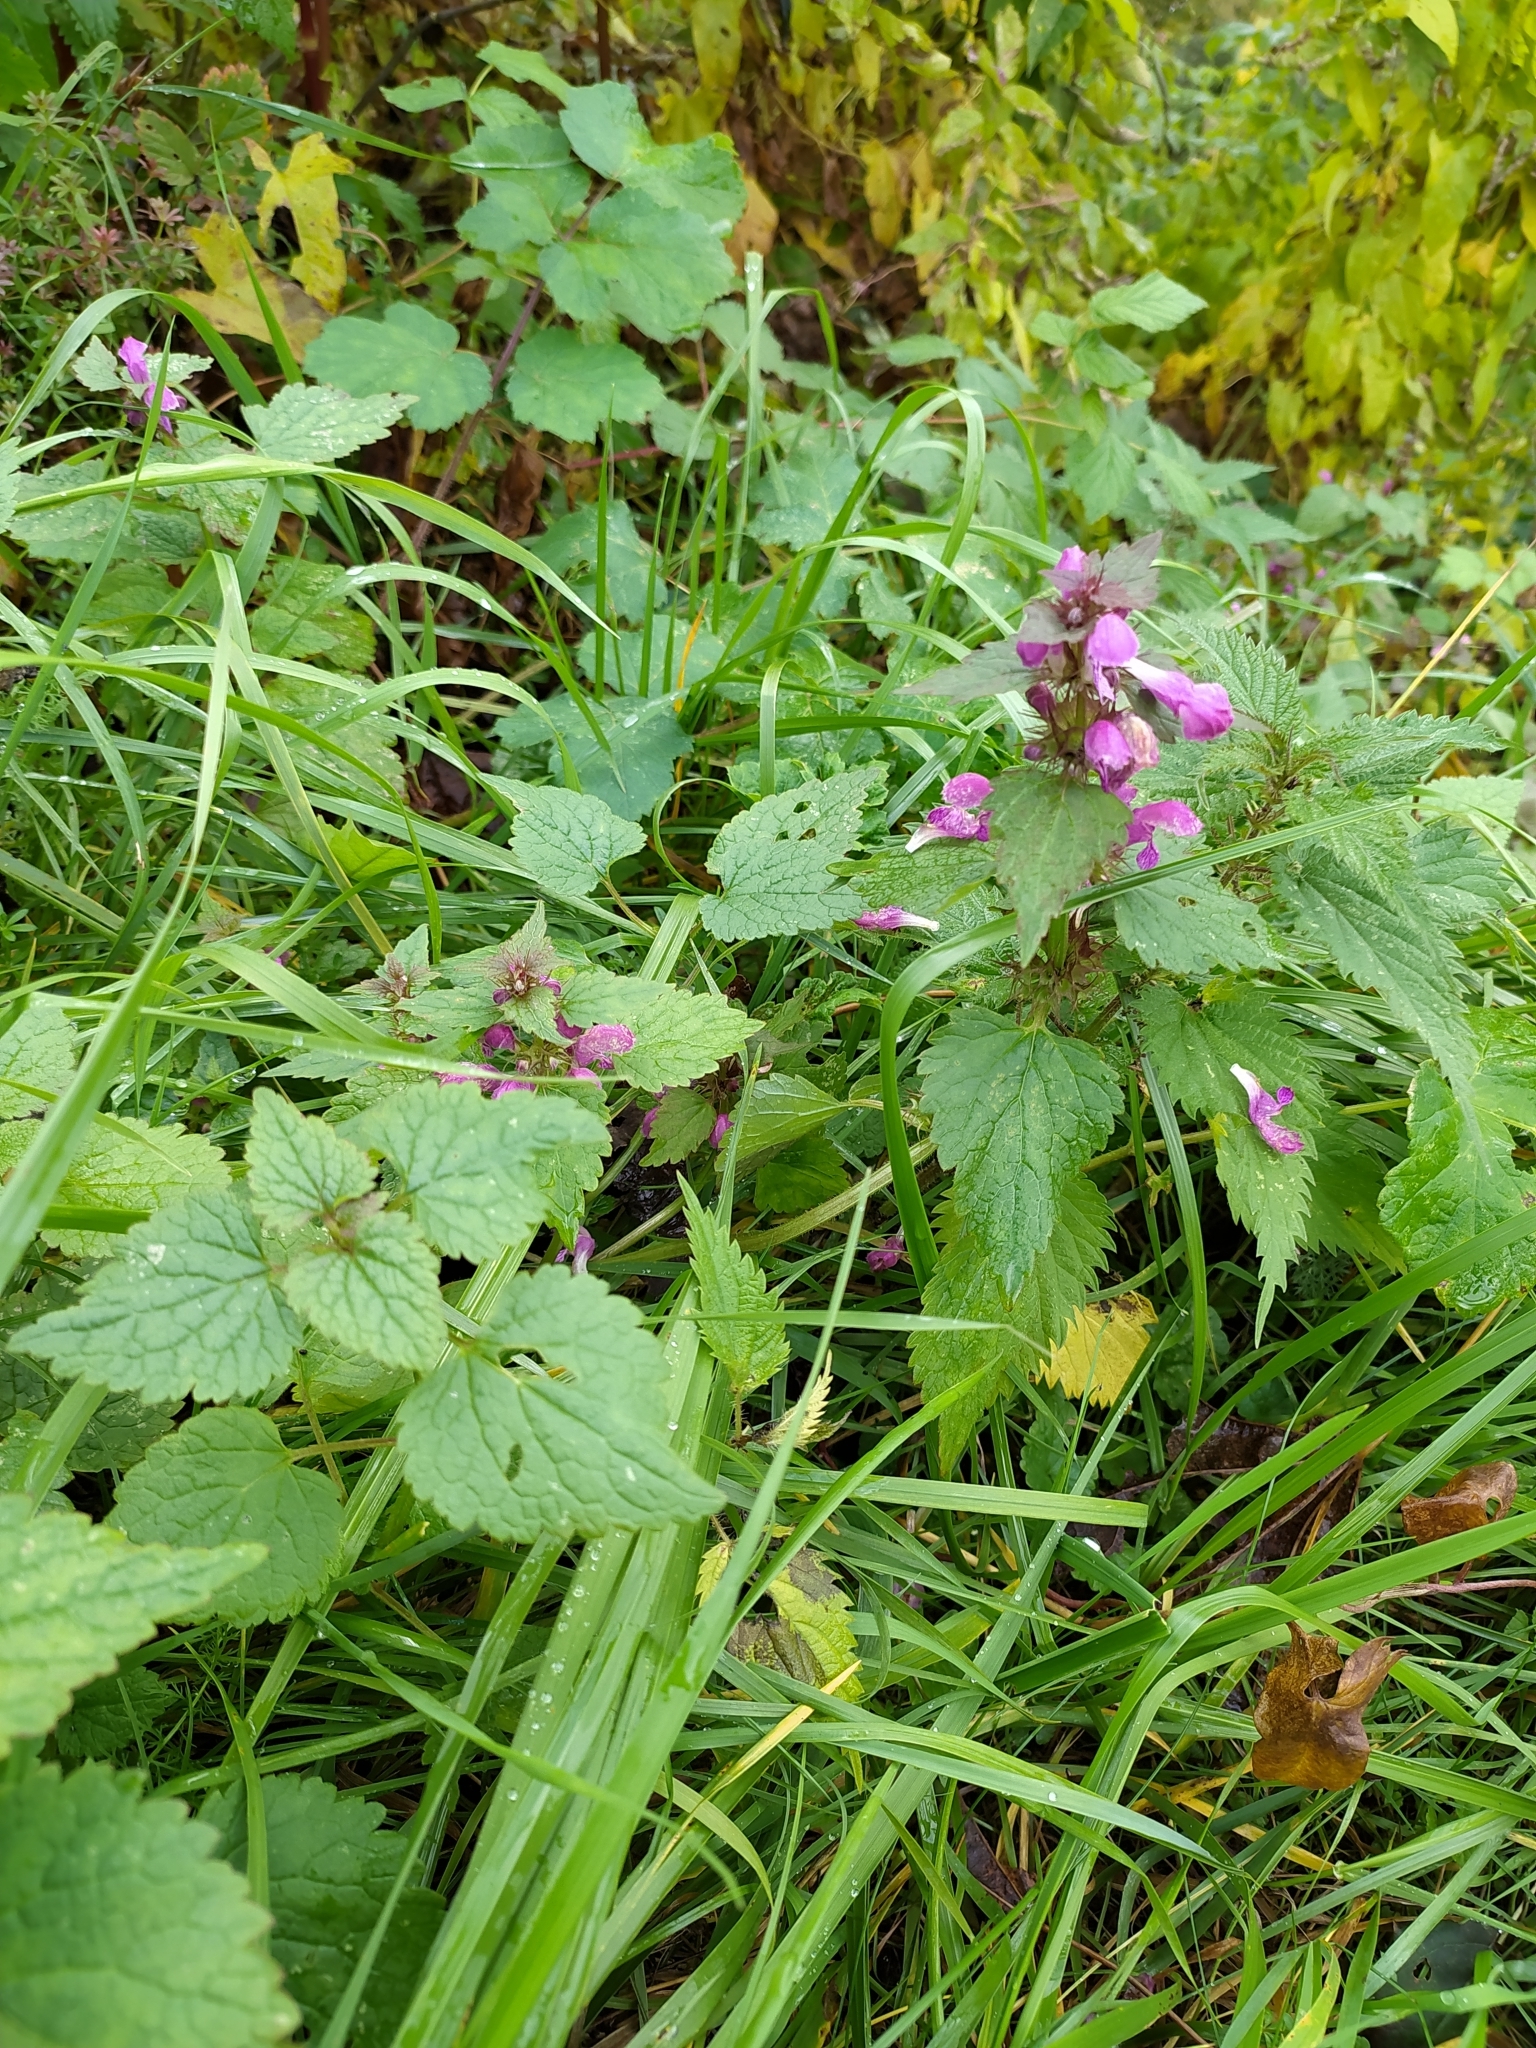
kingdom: Plantae
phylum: Tracheophyta
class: Magnoliopsida
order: Lamiales
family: Lamiaceae
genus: Lamium
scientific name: Lamium maculatum
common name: Spotted dead-nettle
